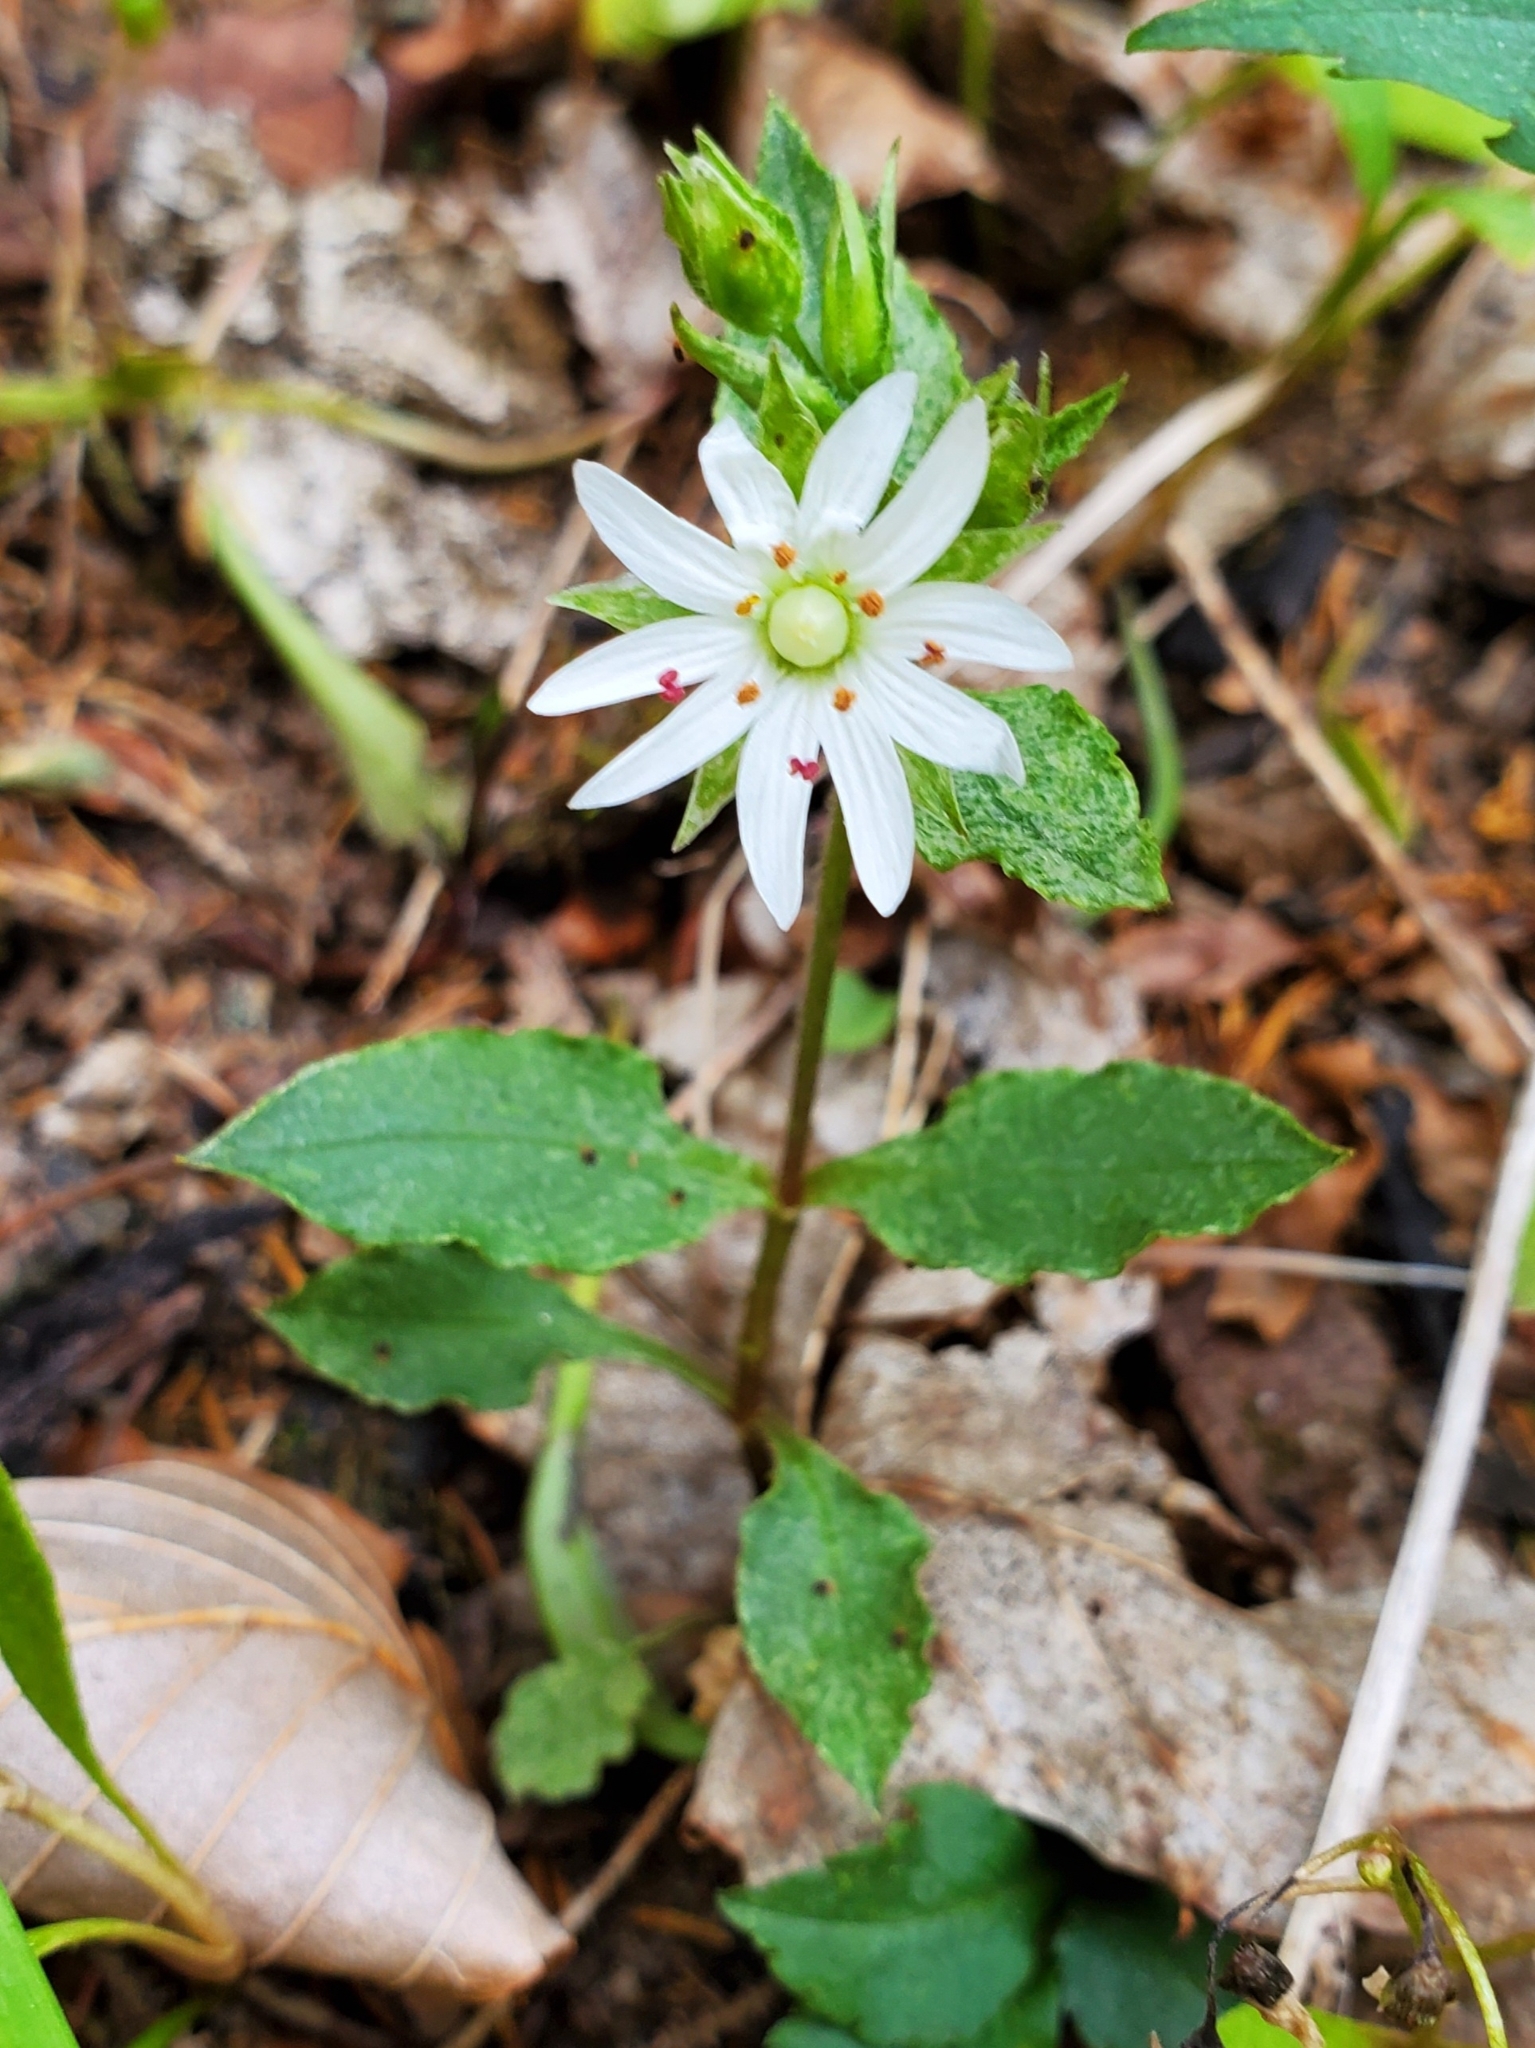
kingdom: Plantae
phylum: Tracheophyta
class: Magnoliopsida
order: Caryophyllales
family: Caryophyllaceae
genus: Stellaria
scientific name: Stellaria pubera
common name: Star chickweed
